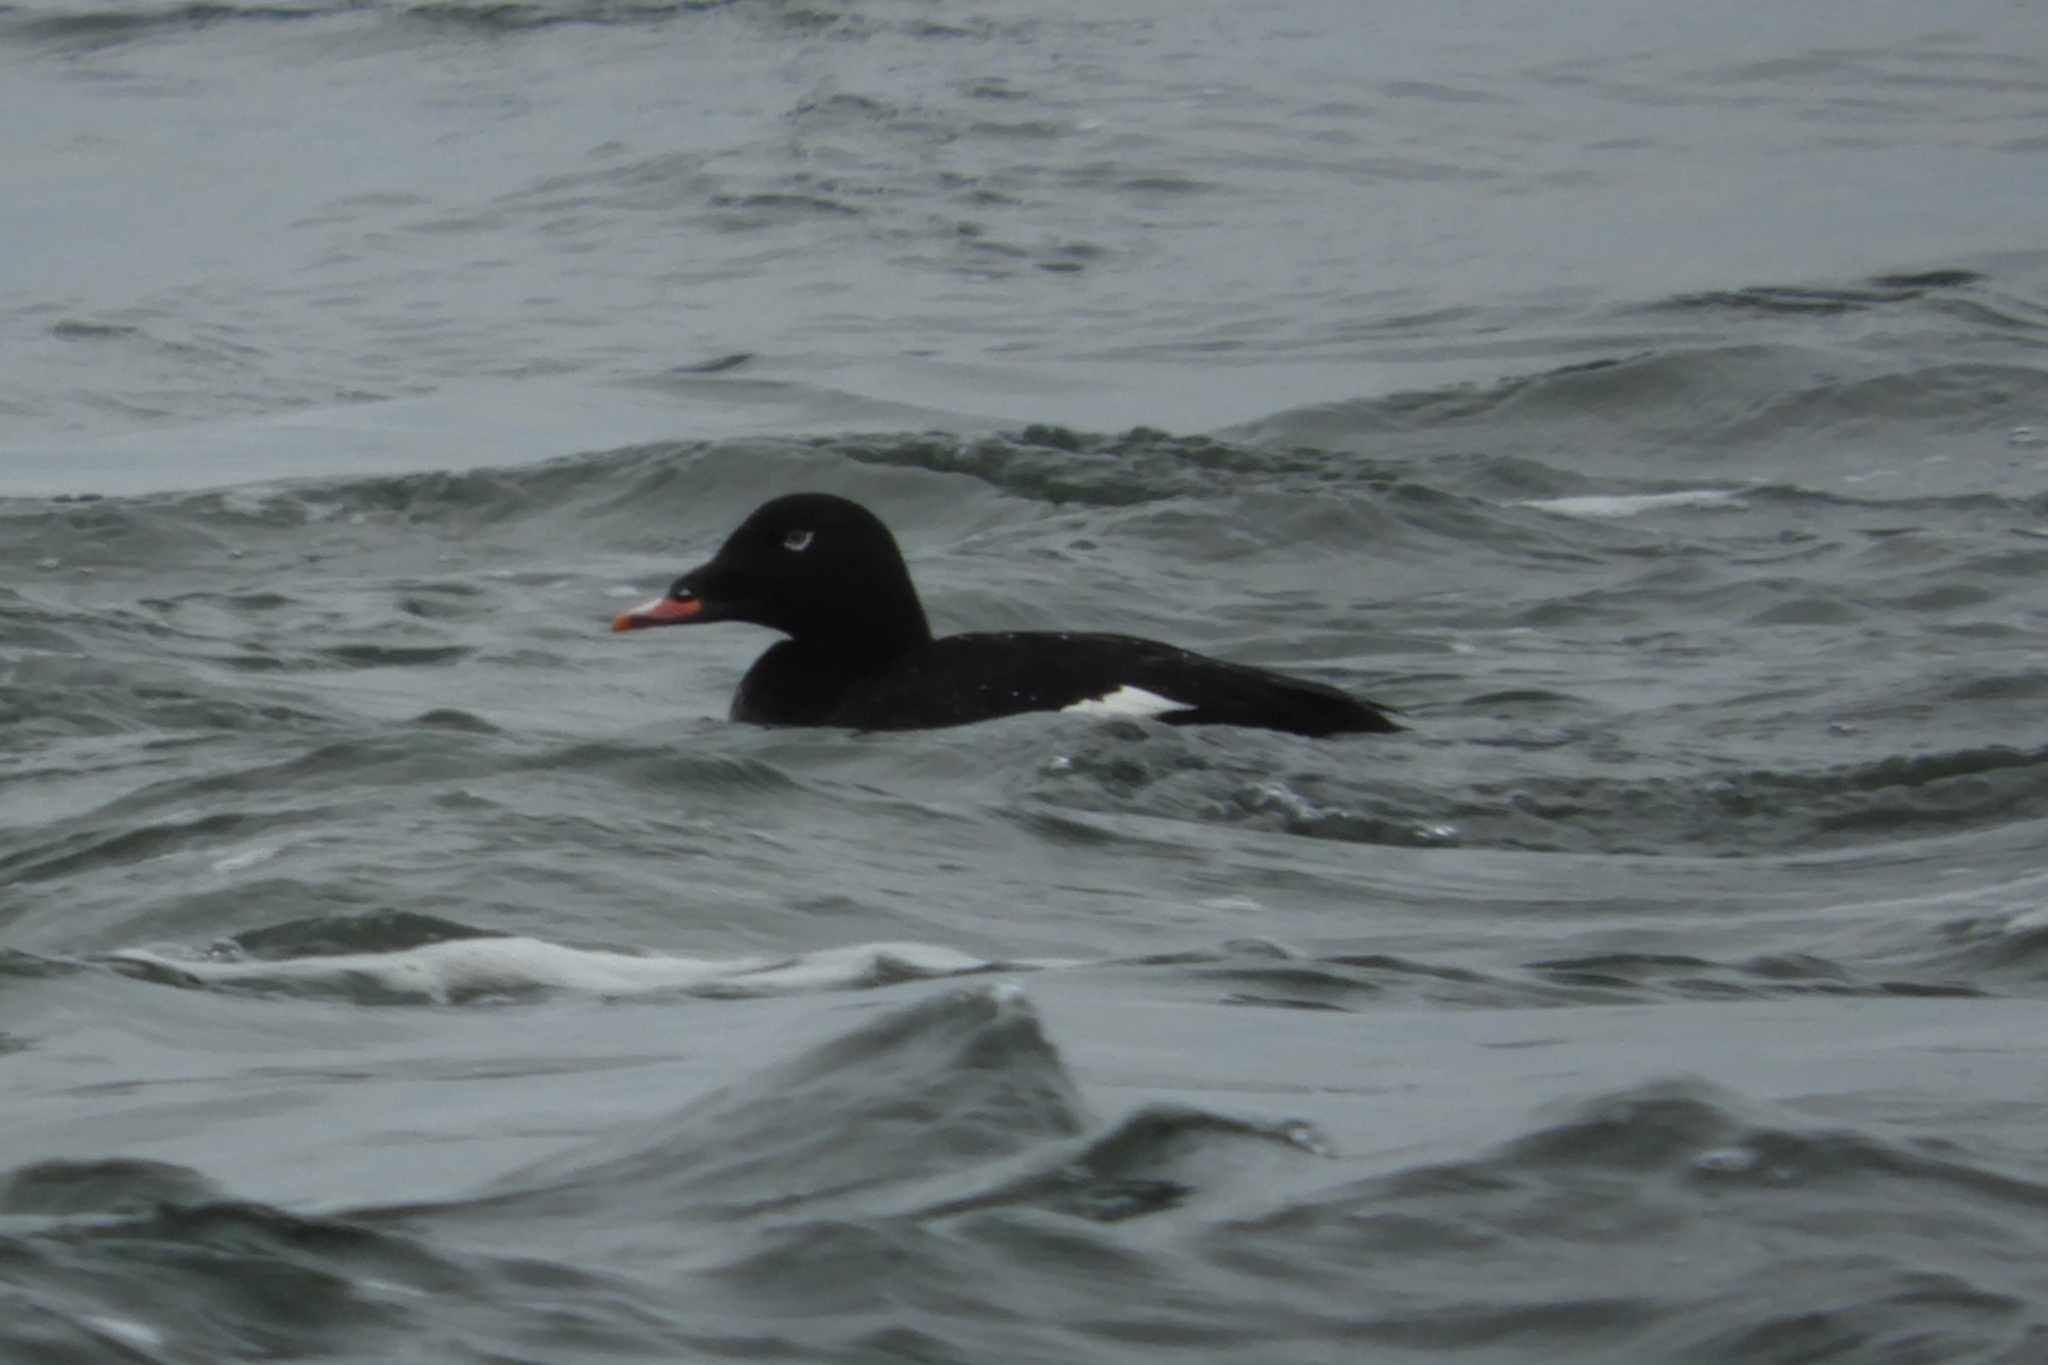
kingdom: Animalia
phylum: Chordata
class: Aves
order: Anseriformes
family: Anatidae
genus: Melanitta
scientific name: Melanitta deglandi
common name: White-winged scoter
